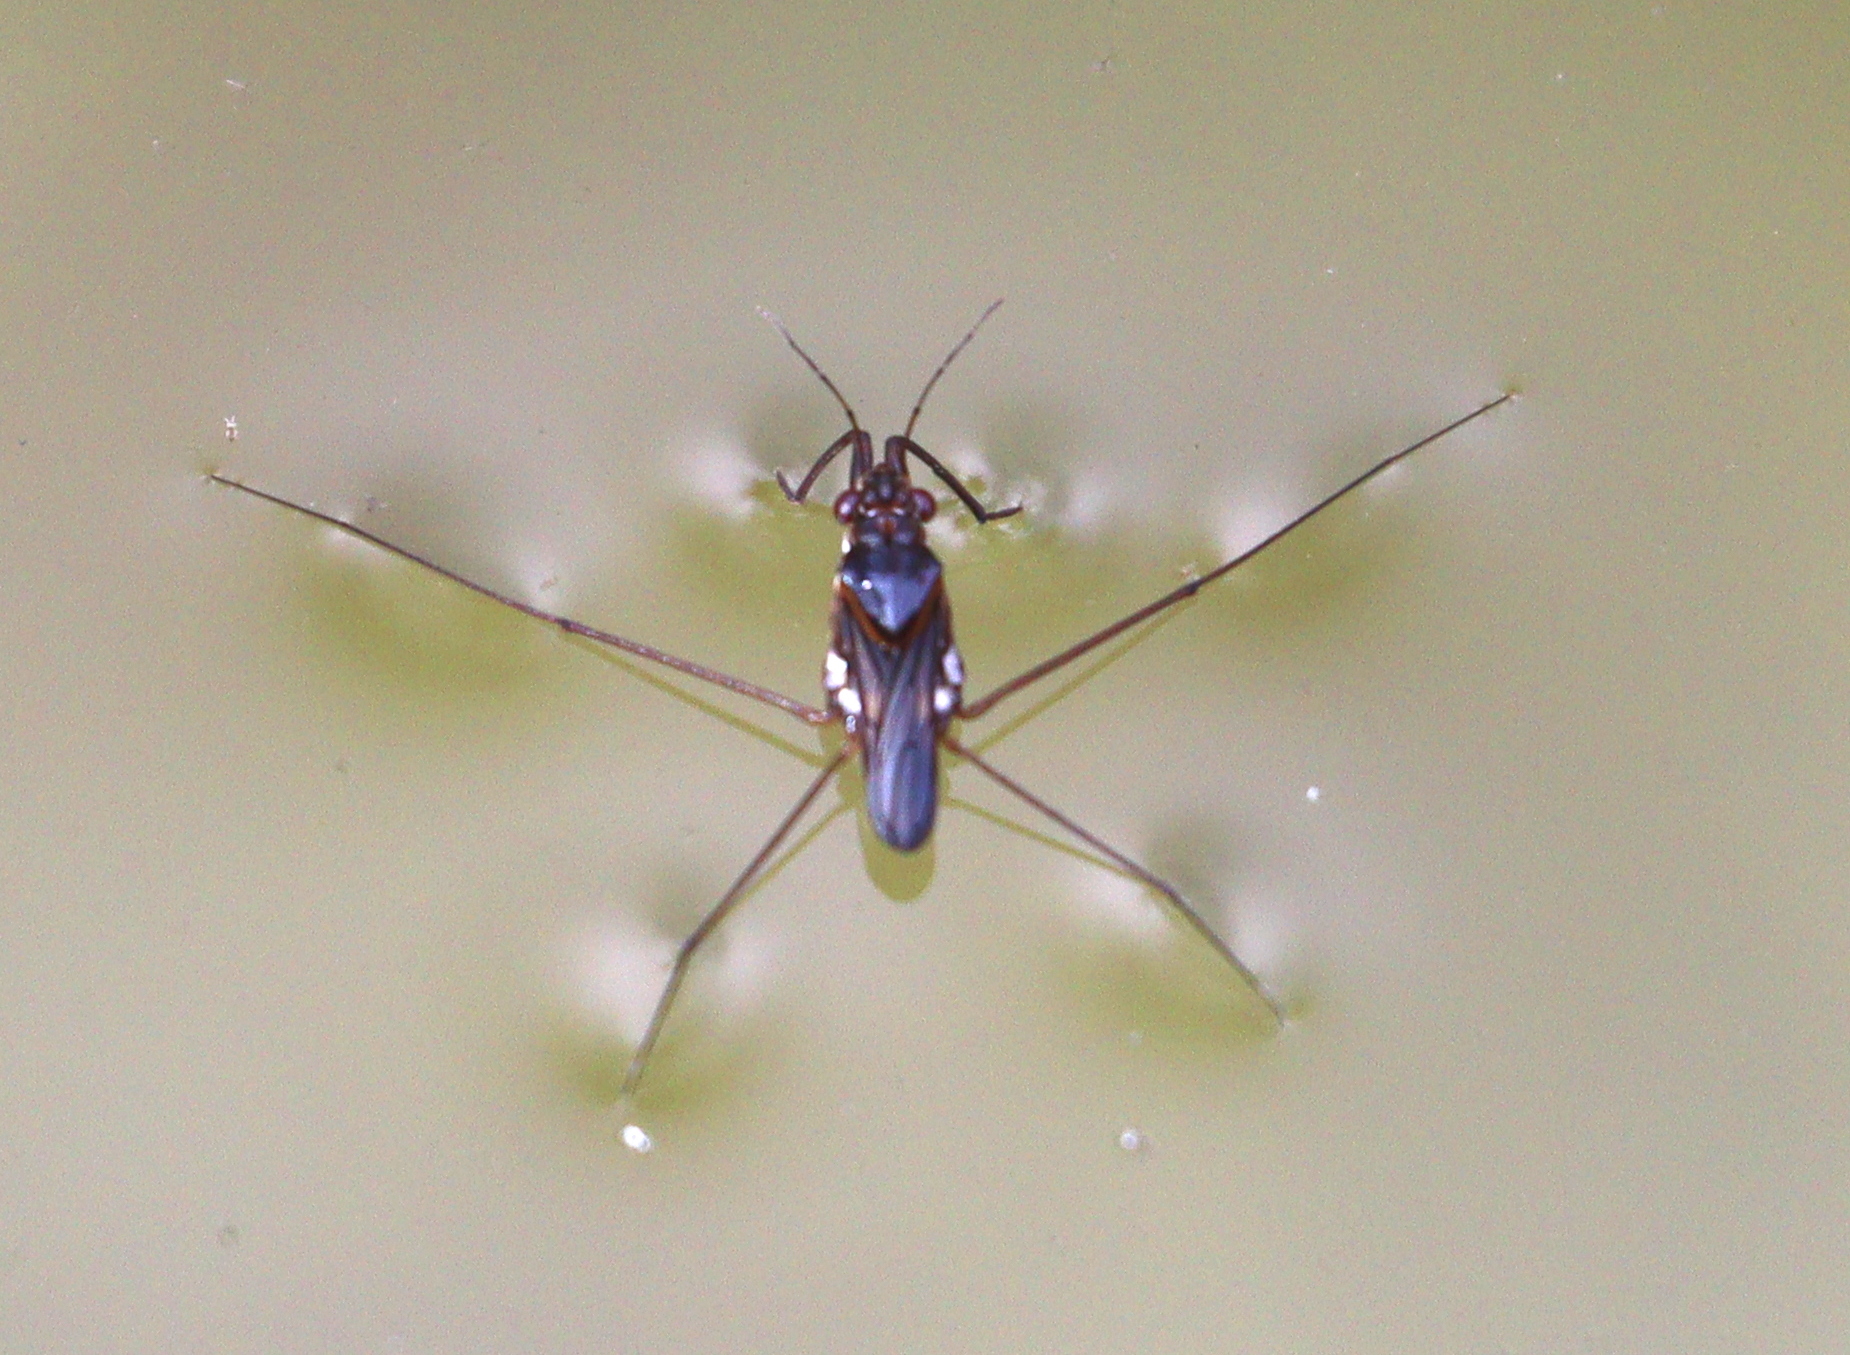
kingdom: Animalia
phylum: Arthropoda
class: Insecta
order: Hemiptera
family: Gerridae
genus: Neogerris
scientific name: Neogerris
